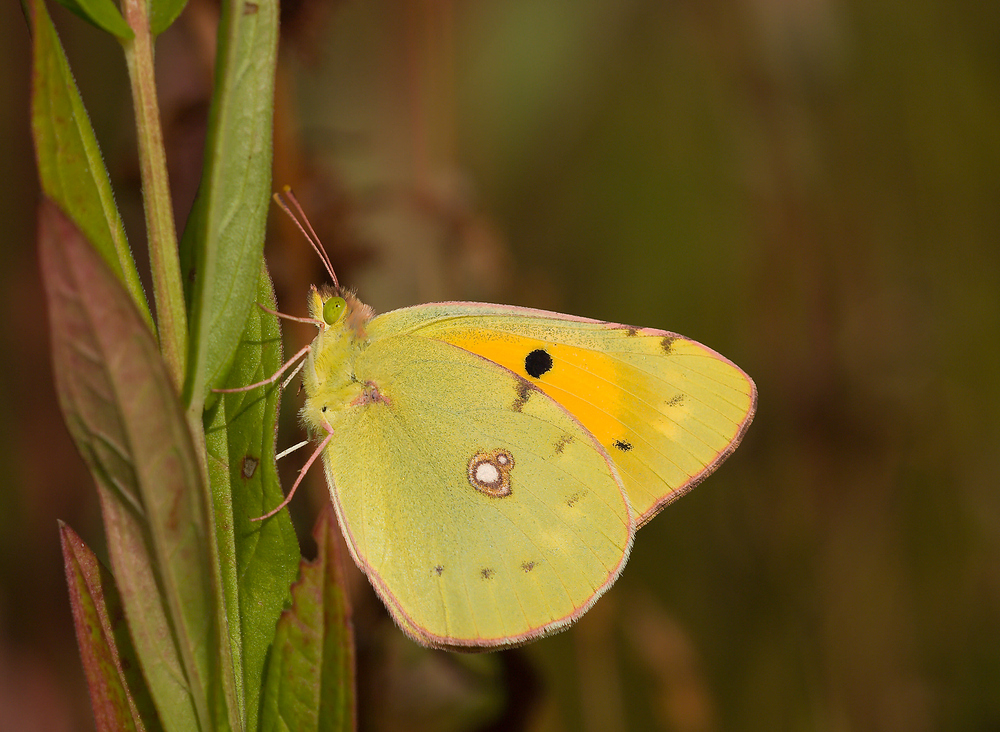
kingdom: Animalia
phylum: Arthropoda
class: Insecta
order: Lepidoptera
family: Pieridae
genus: Colias
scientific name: Colias croceus
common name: Clouded yellow
